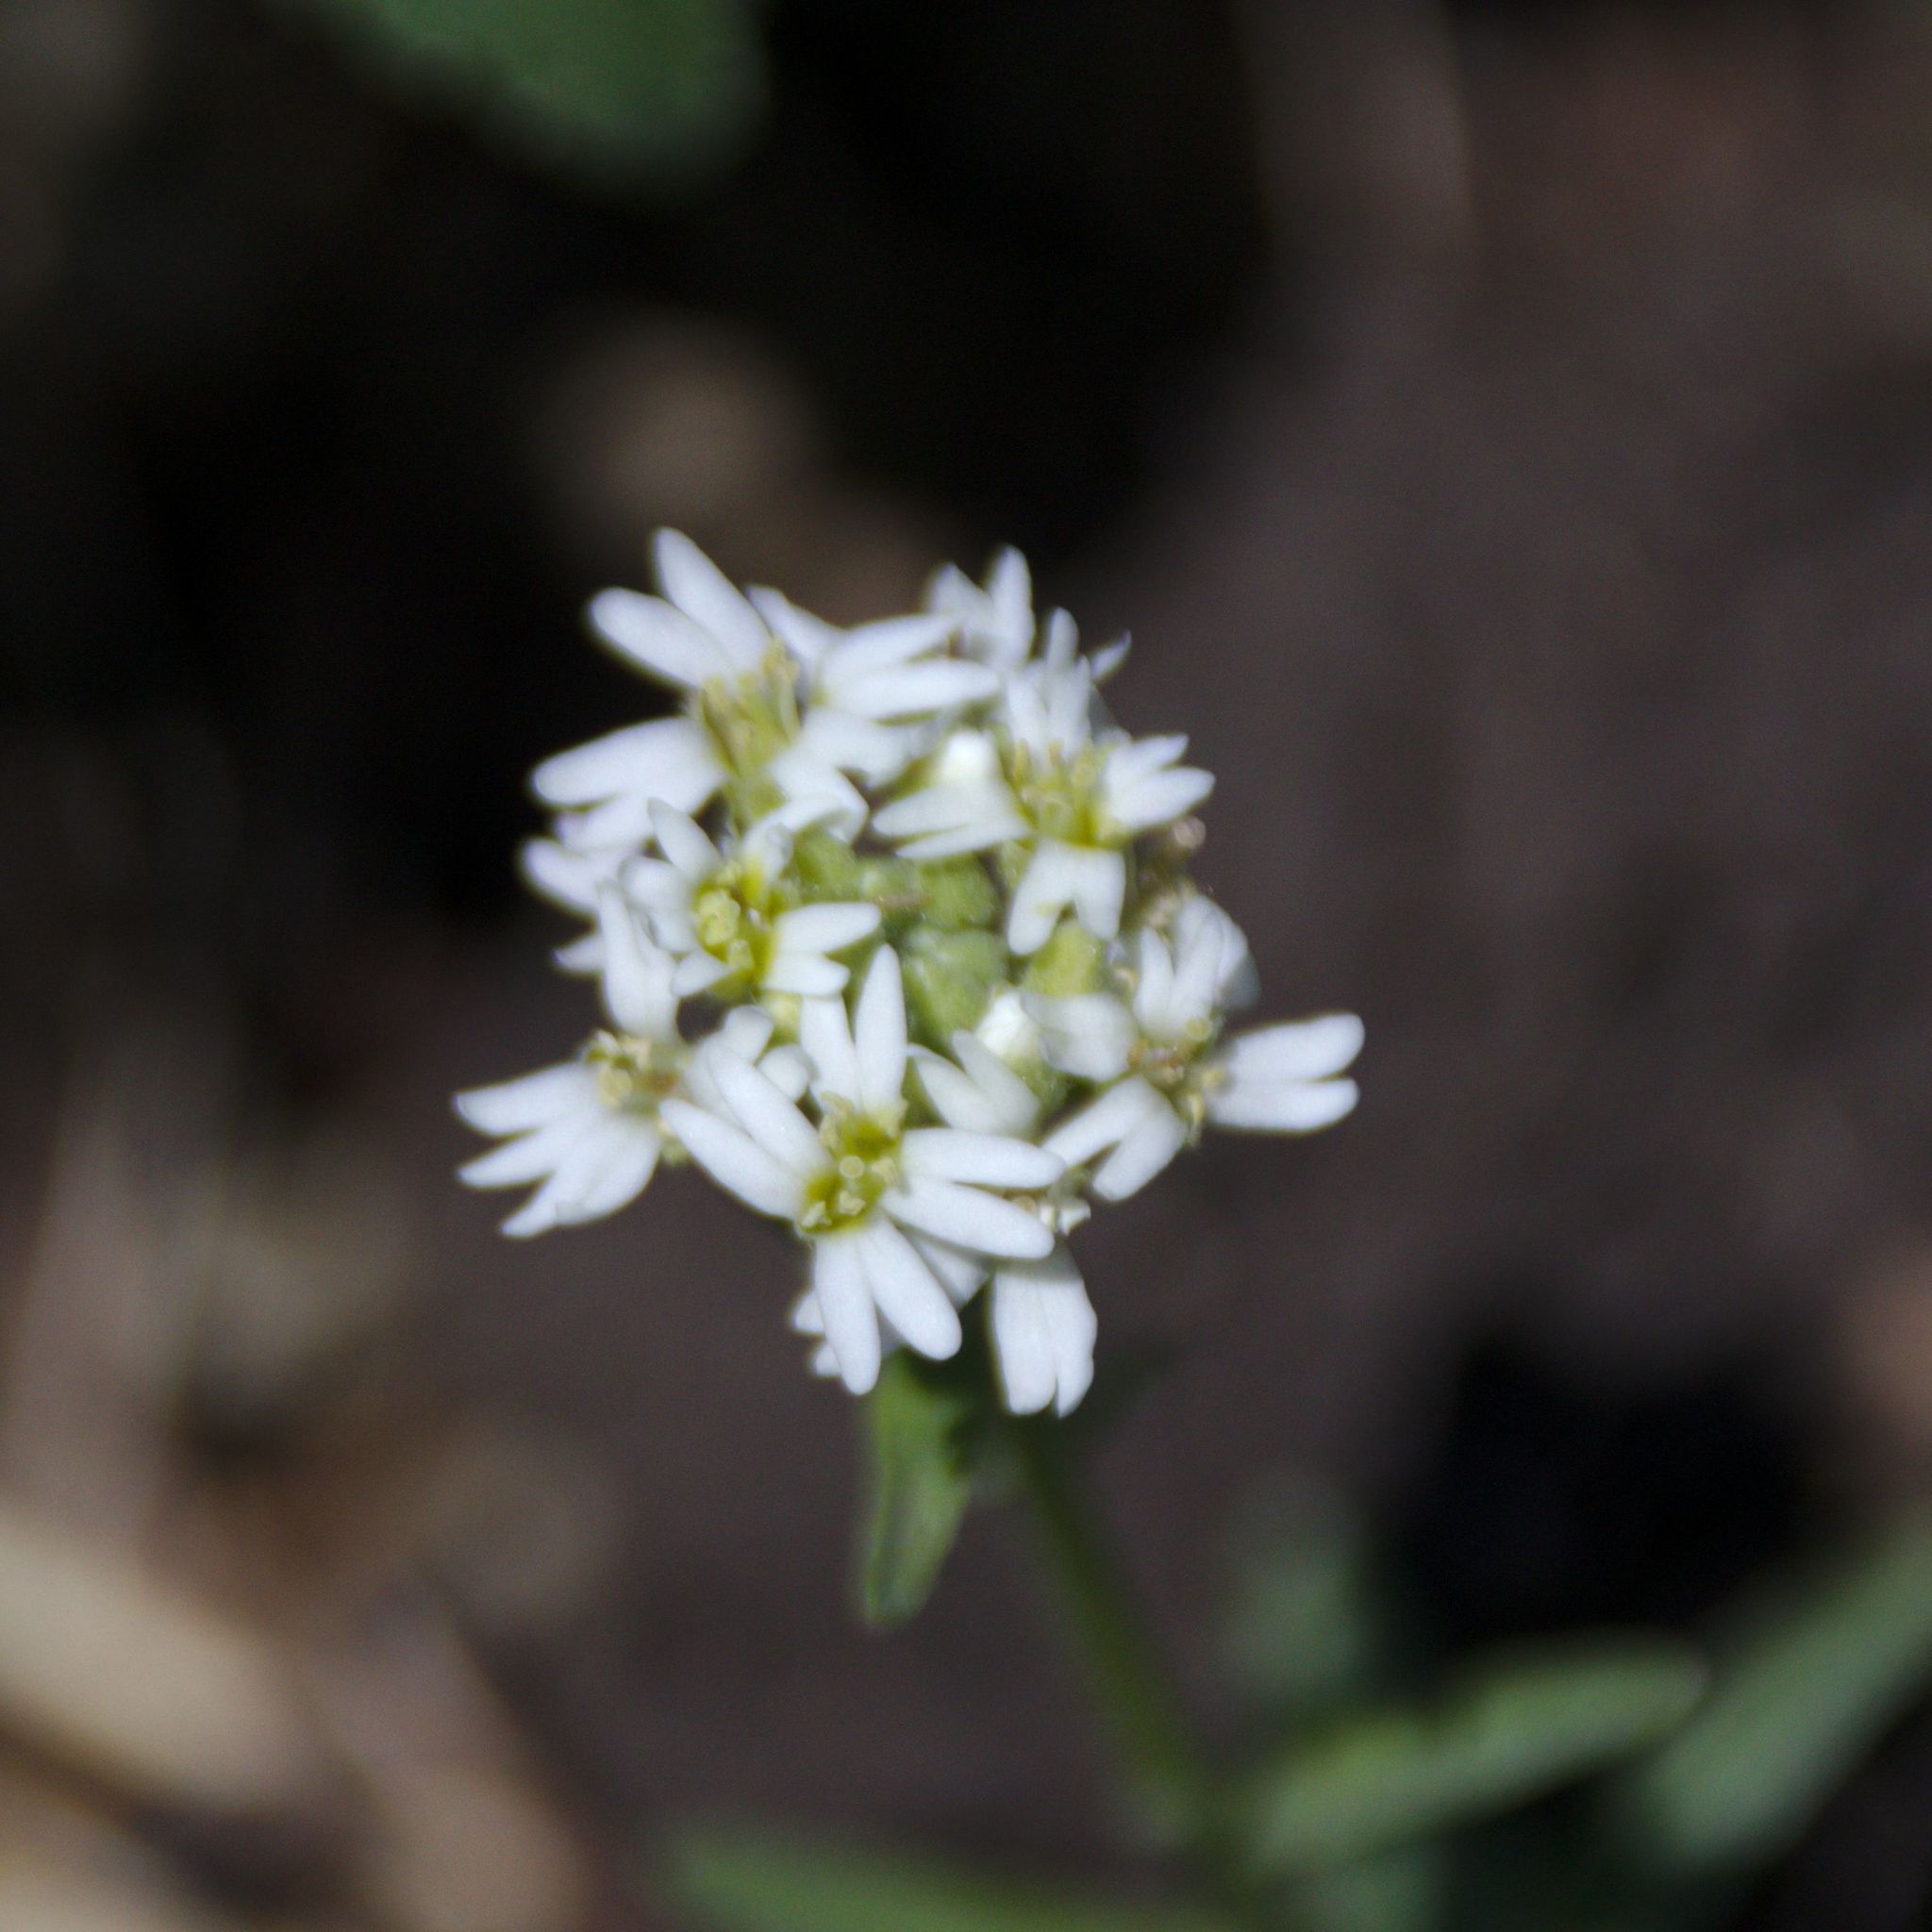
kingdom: Plantae
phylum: Tracheophyta
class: Magnoliopsida
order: Brassicales
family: Brassicaceae
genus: Berteroa
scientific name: Berteroa incana
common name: Hoary alison
